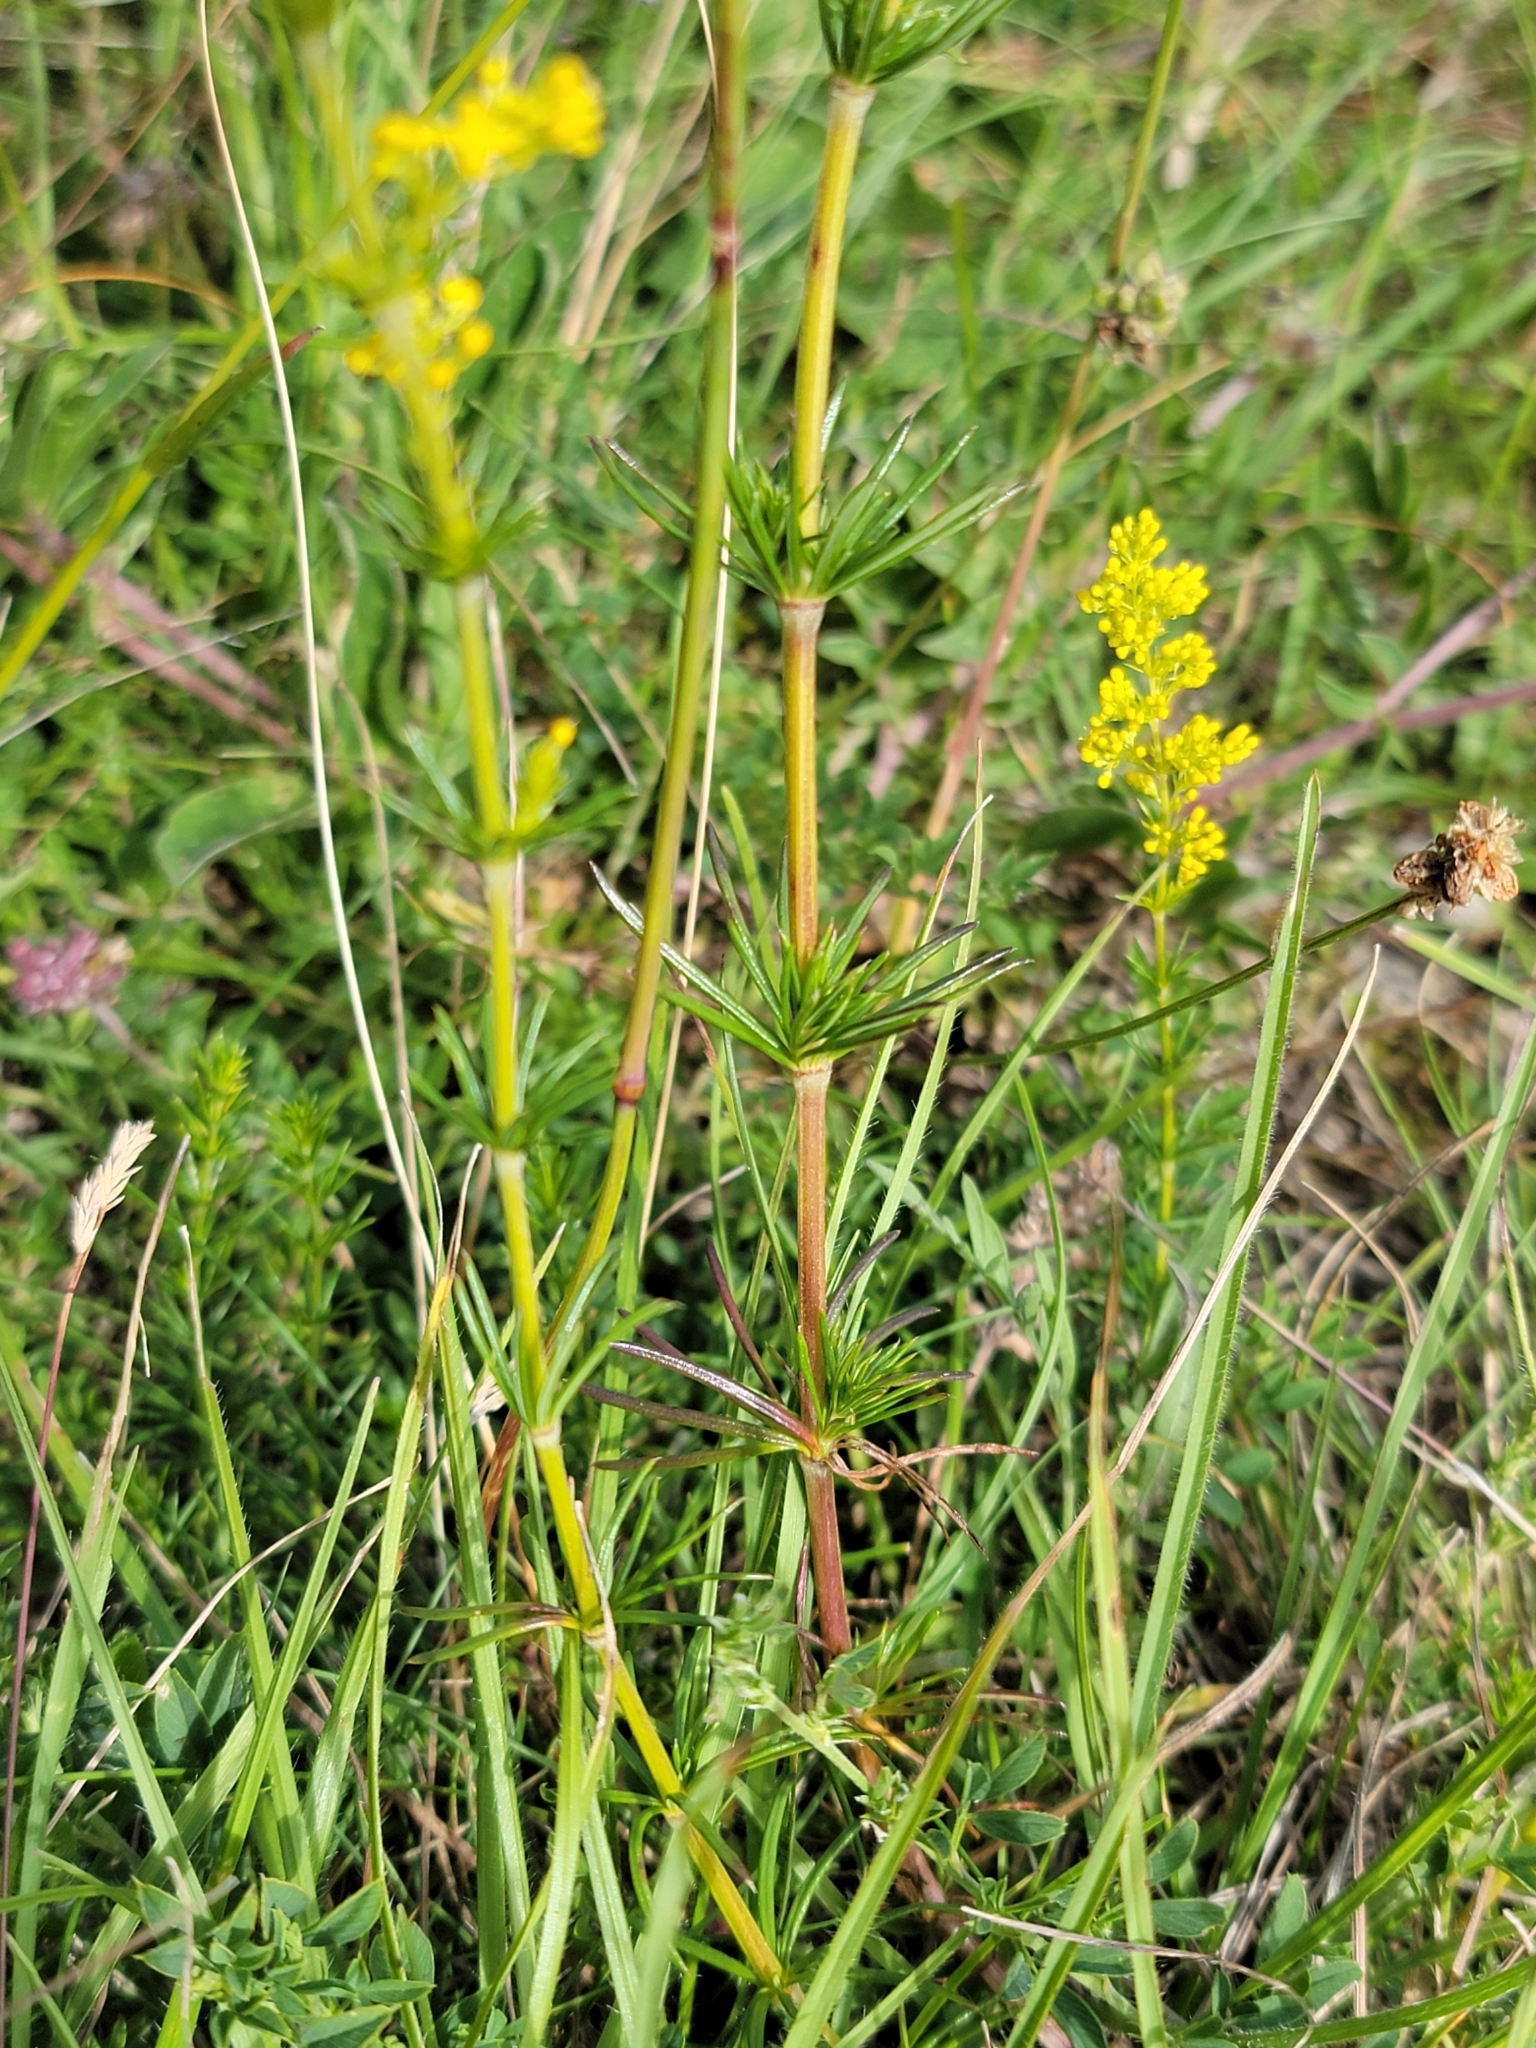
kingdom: Plantae
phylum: Tracheophyta
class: Magnoliopsida
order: Gentianales
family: Rubiaceae
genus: Galium
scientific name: Galium verum
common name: Lady's bedstraw
